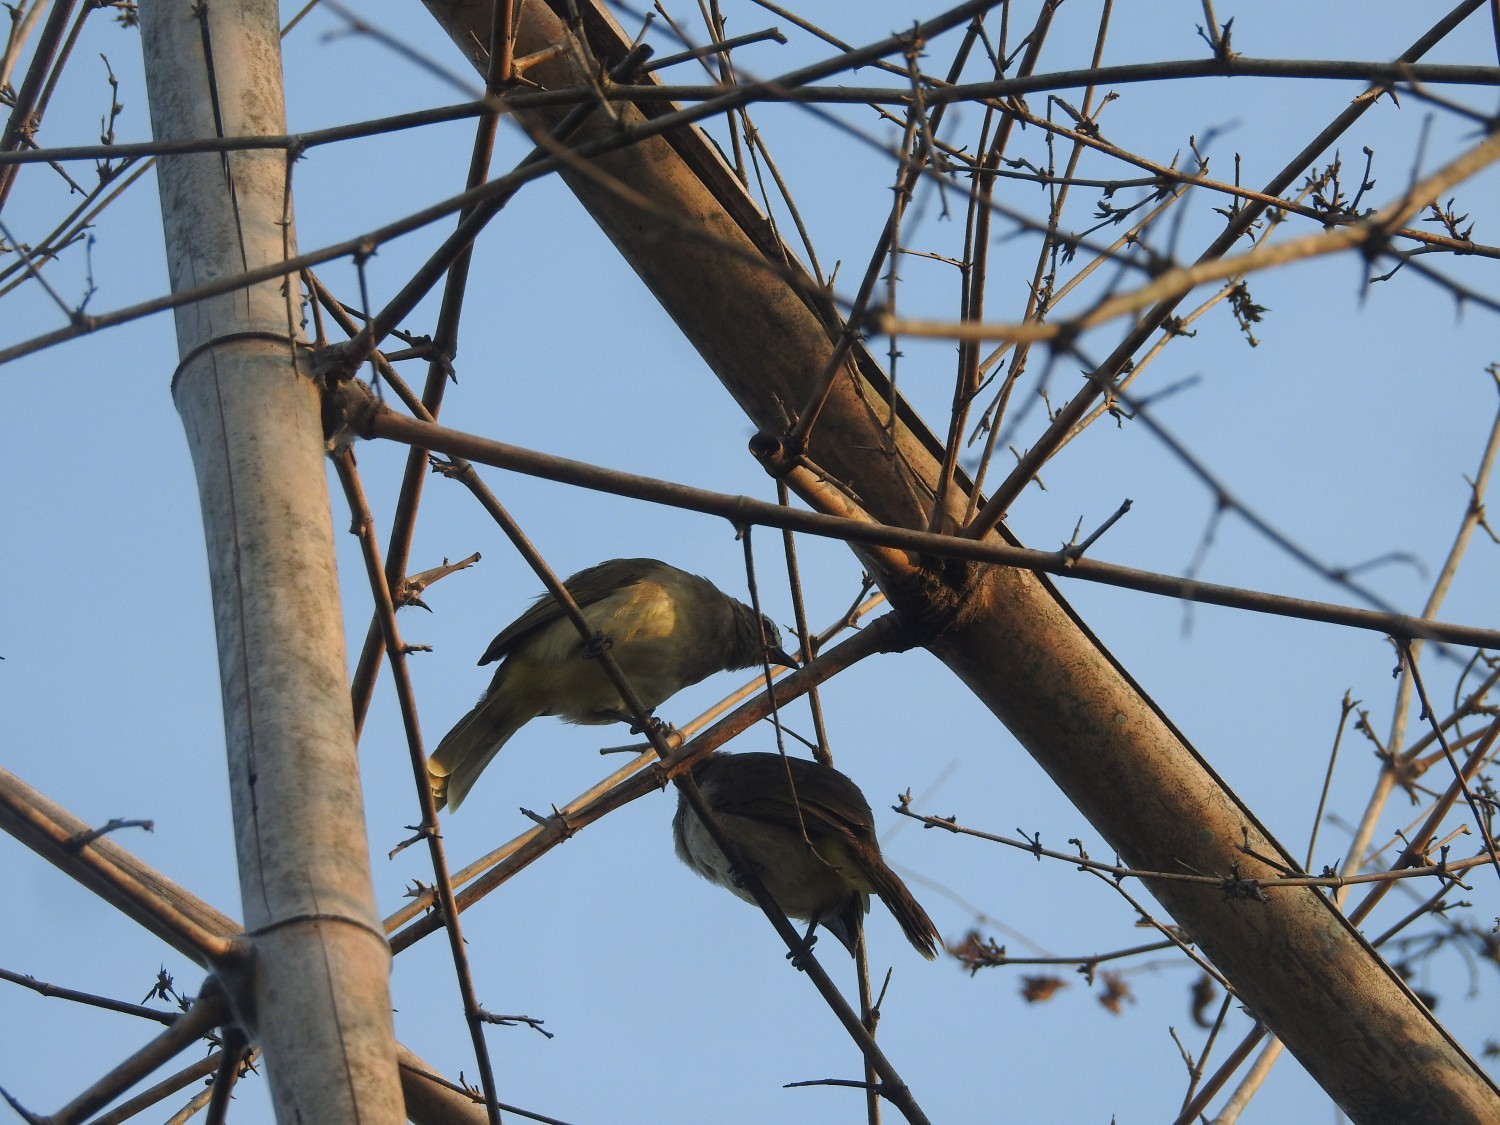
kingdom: Animalia
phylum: Chordata
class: Aves
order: Passeriformes
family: Pycnonotidae
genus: Pycnonotus
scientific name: Pycnonotus luteolus
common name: White-browed bulbul
